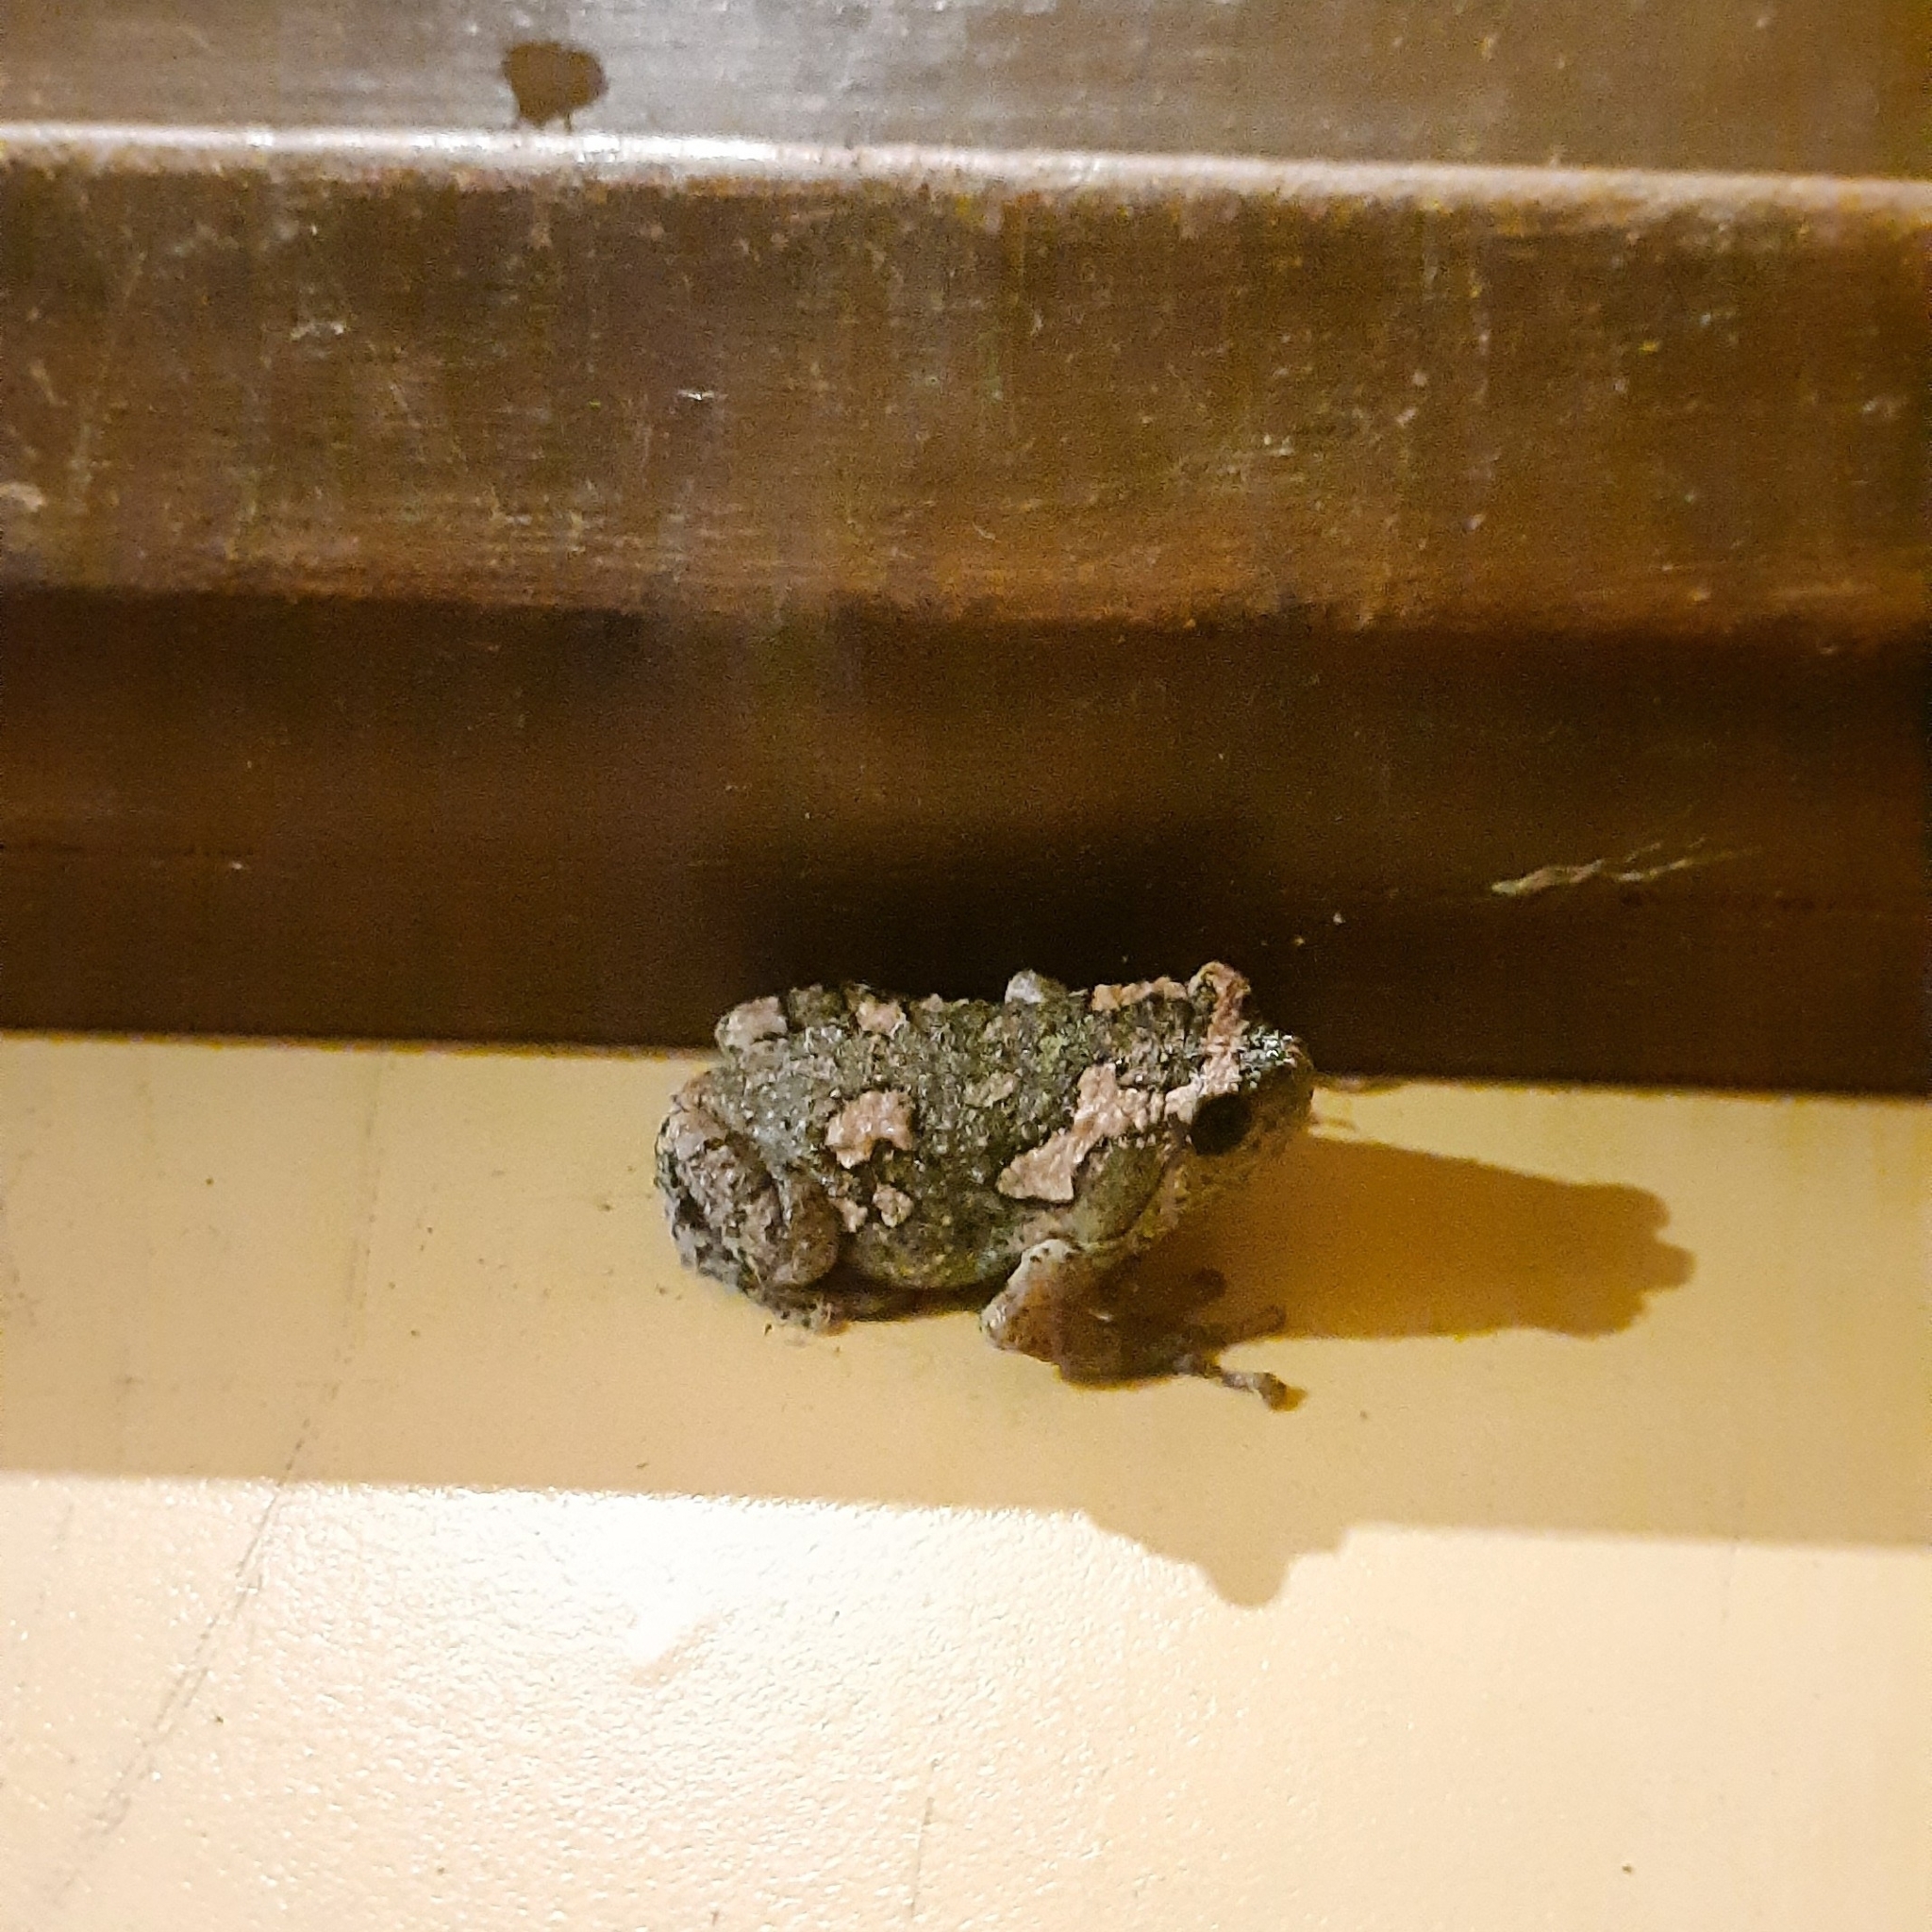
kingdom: Animalia
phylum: Chordata
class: Amphibia
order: Anura
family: Microhylidae
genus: Uperodon
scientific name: Uperodon taprobanicus
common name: Ceylon kaloula
